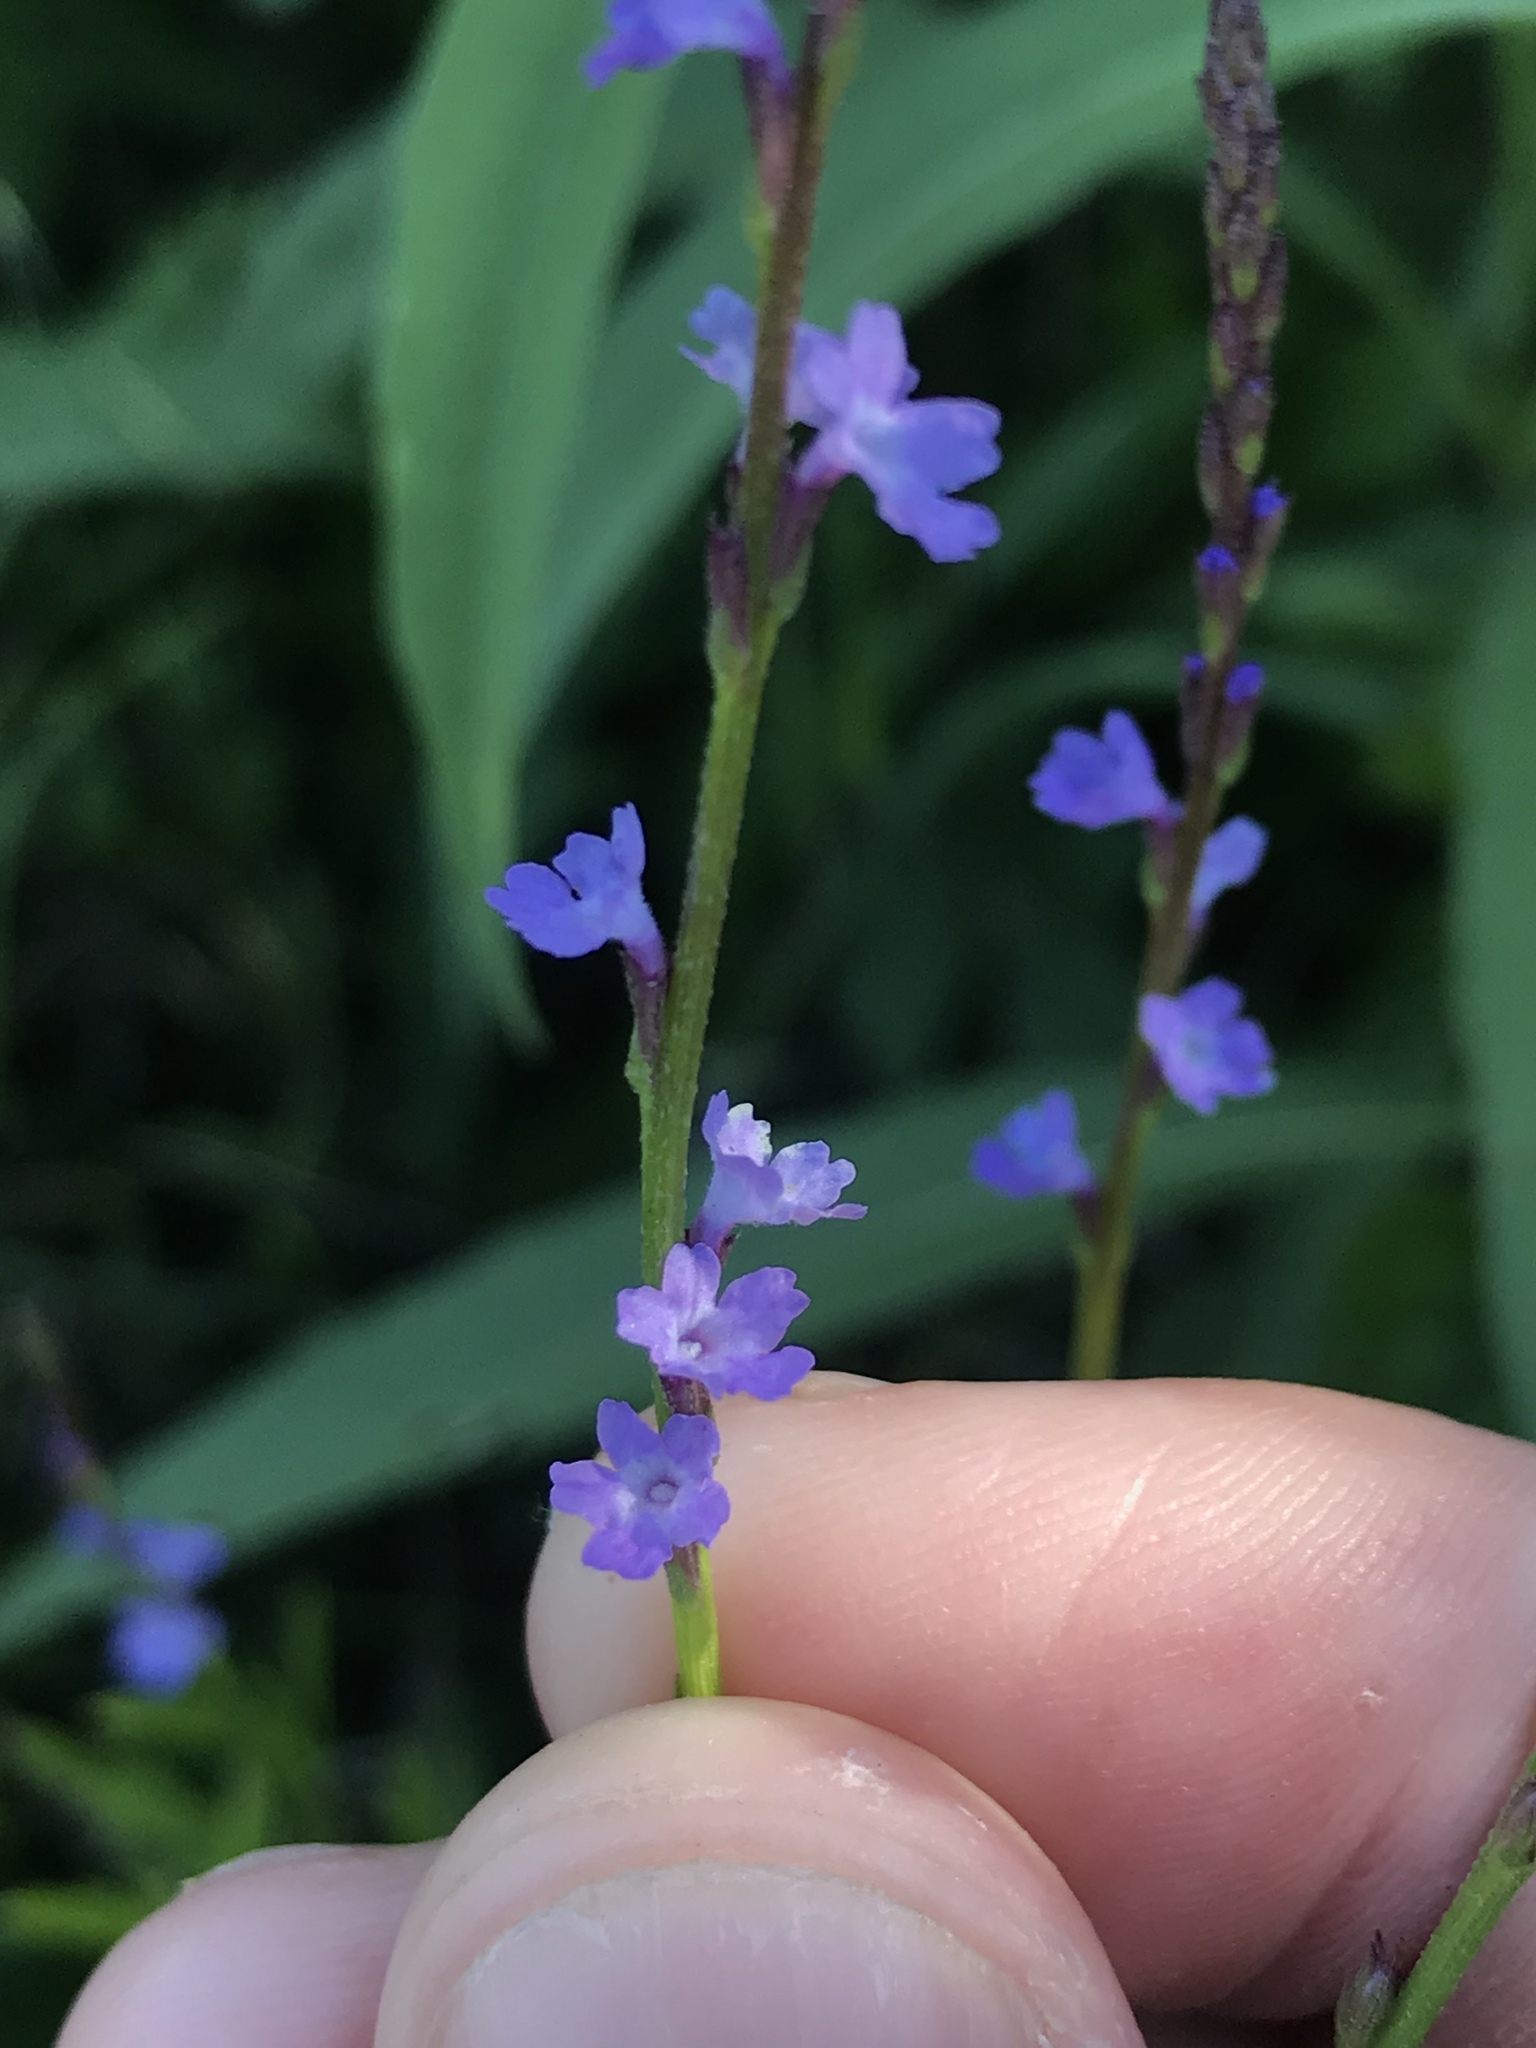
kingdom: Plantae
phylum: Tracheophyta
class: Magnoliopsida
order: Lamiales
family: Verbenaceae
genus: Verbena
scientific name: Verbena halei
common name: Texas vervain
